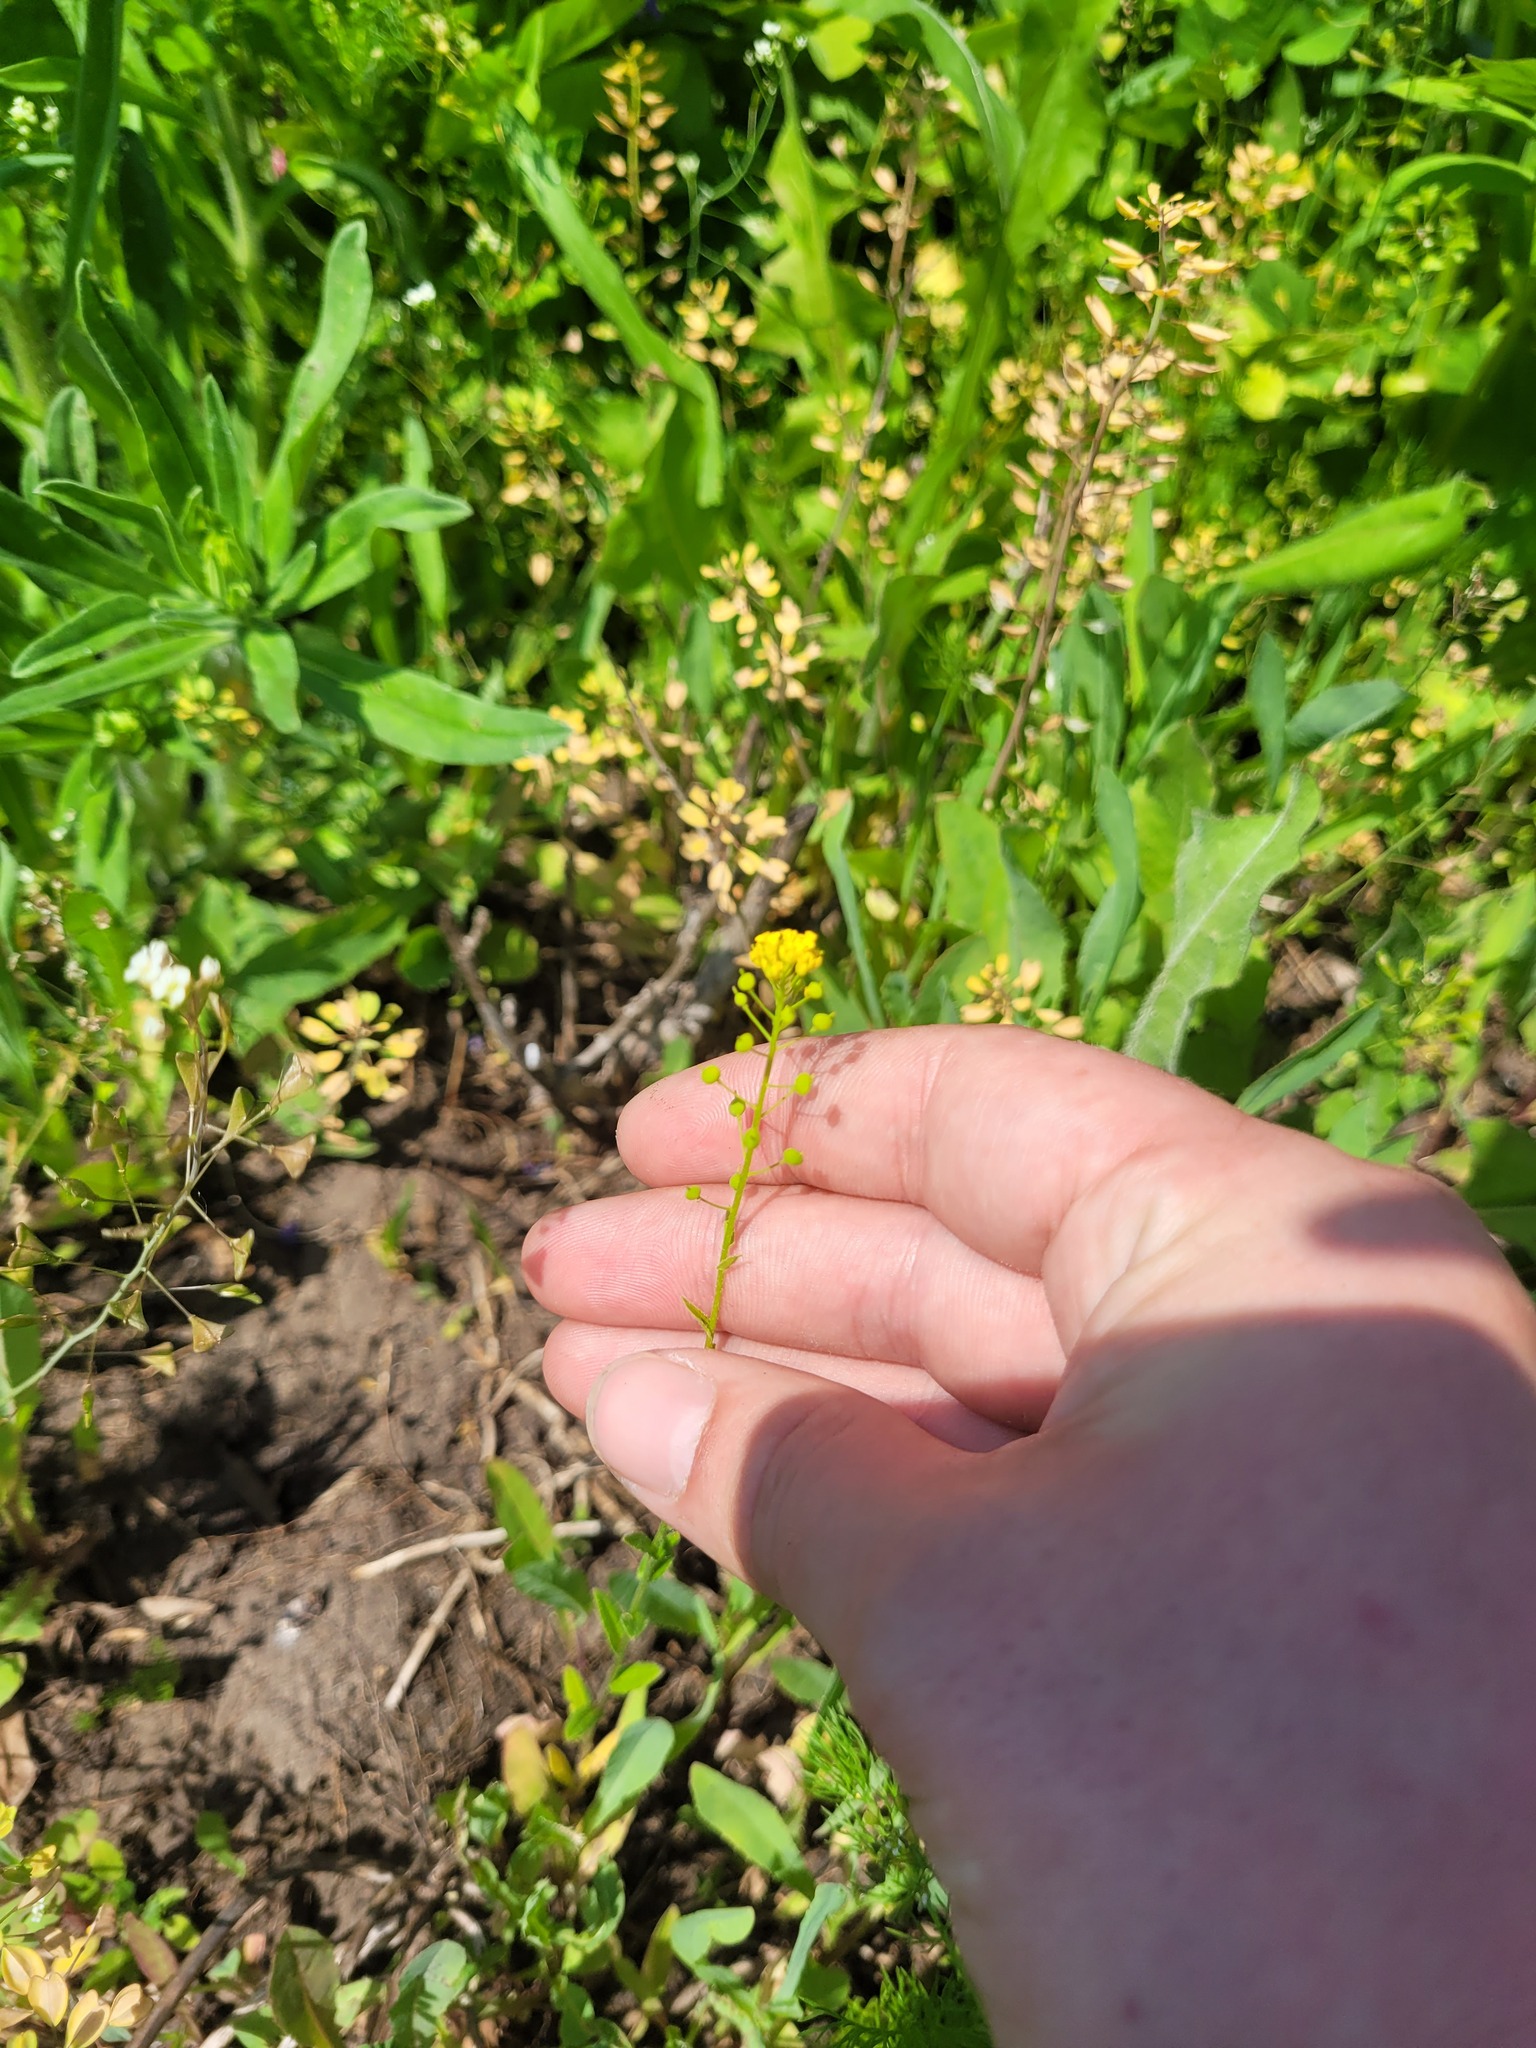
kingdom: Plantae
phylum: Tracheophyta
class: Magnoliopsida
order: Brassicales
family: Brassicaceae
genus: Neslia
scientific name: Neslia paniculata
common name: Ball mustard
